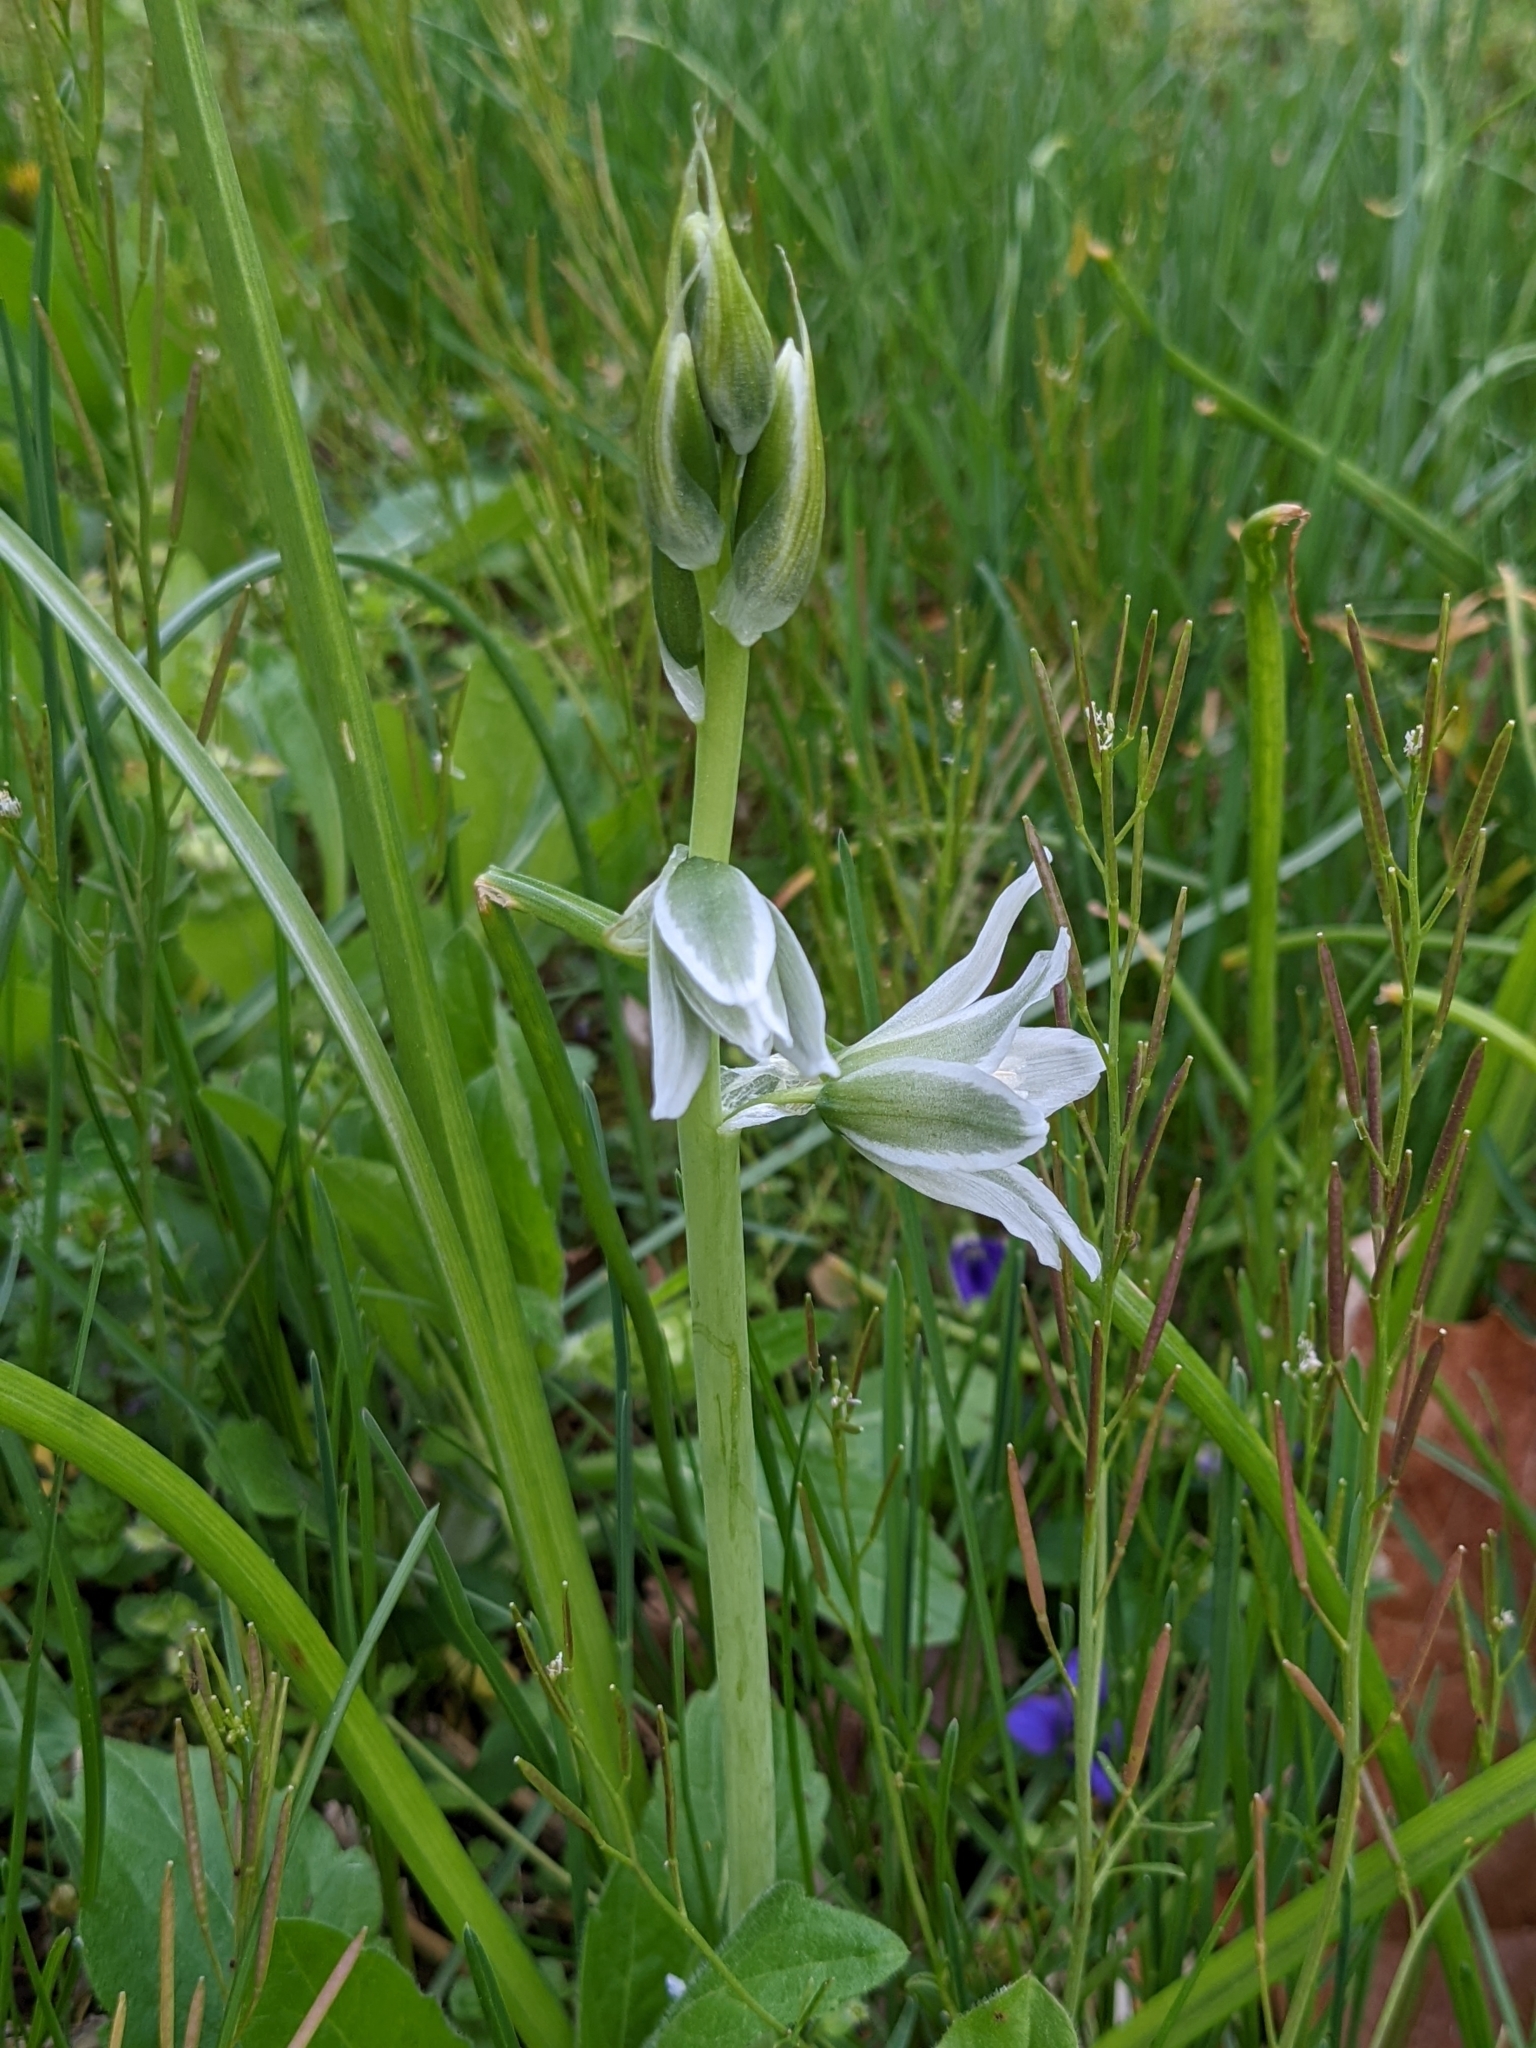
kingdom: Plantae
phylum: Tracheophyta
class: Liliopsida
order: Asparagales
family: Asparagaceae
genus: Ornithogalum
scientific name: Ornithogalum nutans
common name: Drooping star-of-bethlehem
